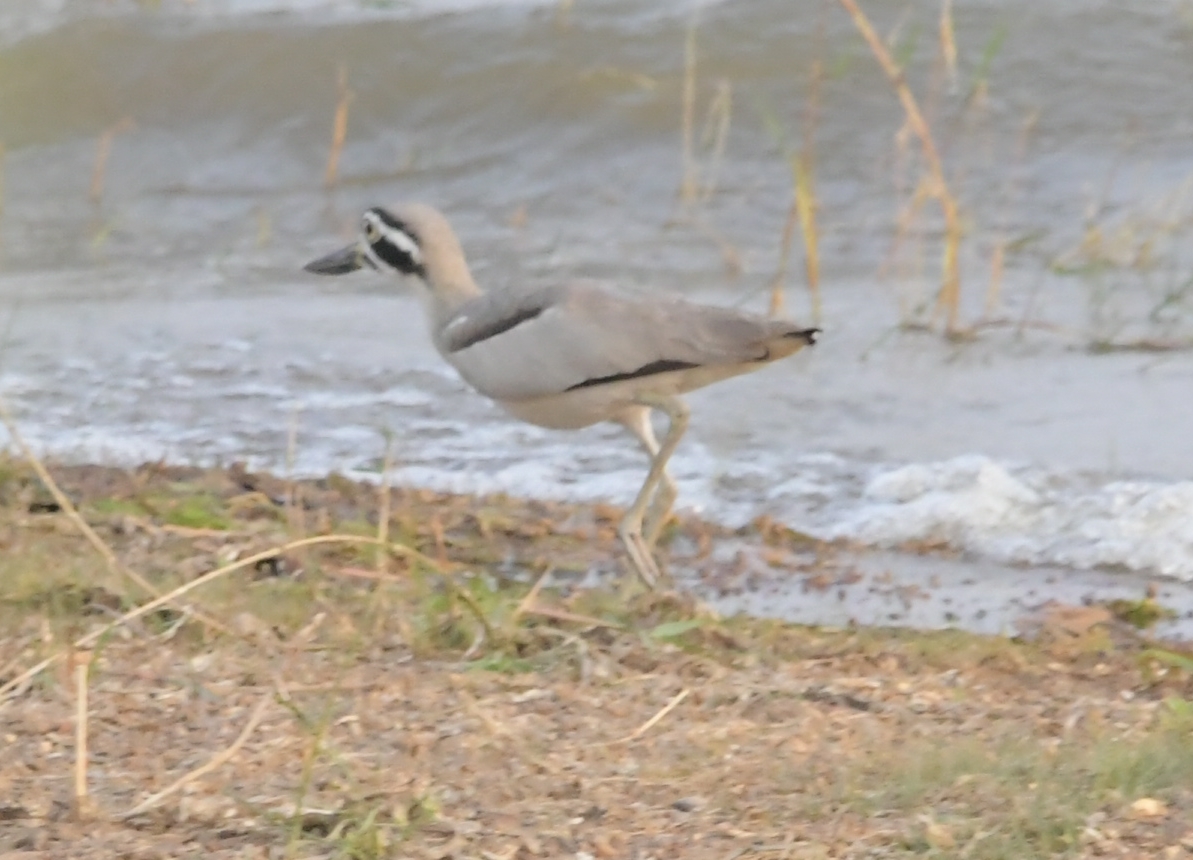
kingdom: Animalia
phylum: Chordata
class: Aves
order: Charadriiformes
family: Burhinidae
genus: Esacus
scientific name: Esacus recurvirostris
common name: Great stone-curlew
